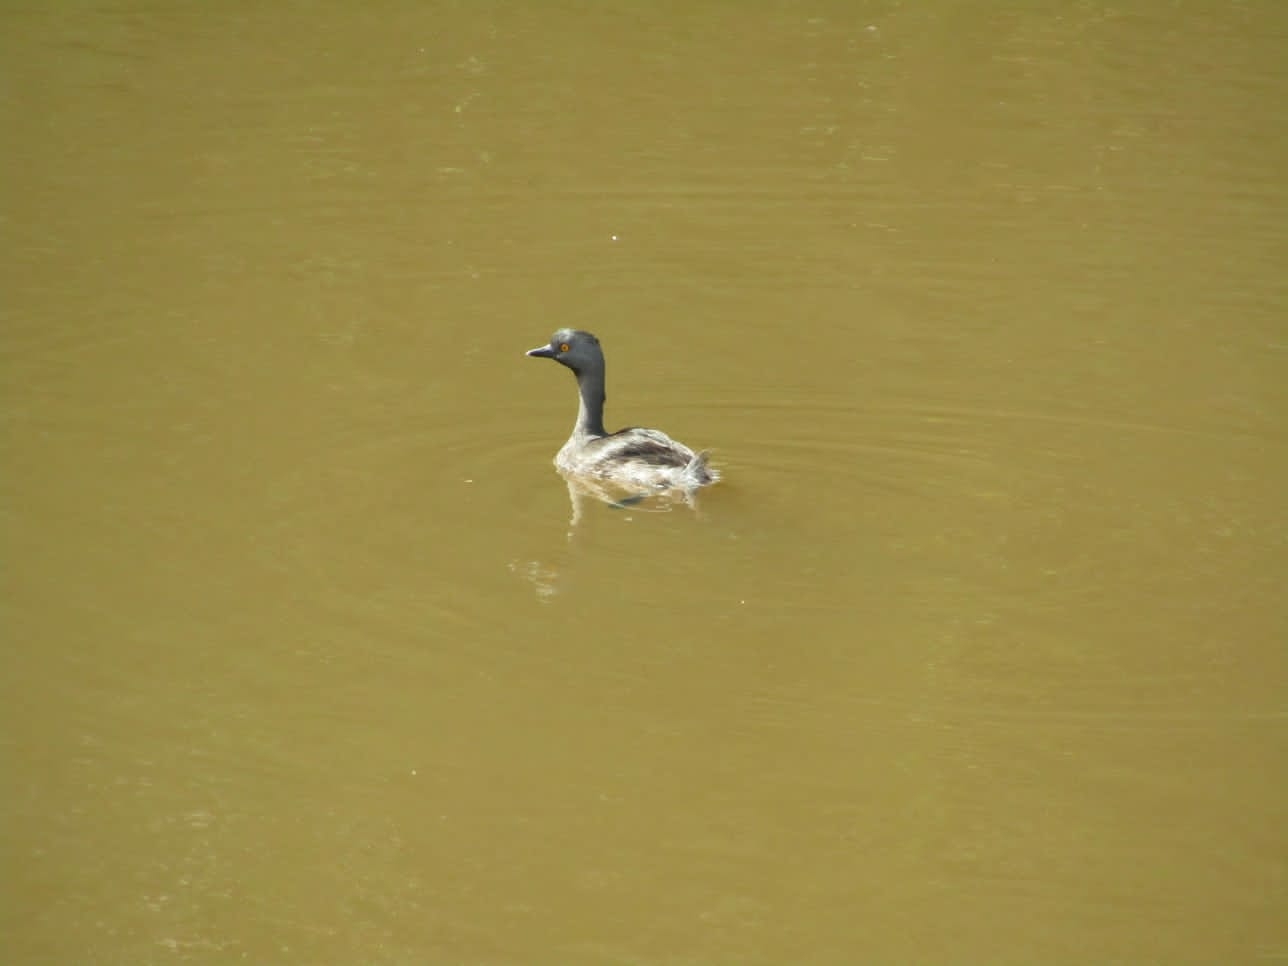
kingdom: Animalia
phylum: Chordata
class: Aves
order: Podicipediformes
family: Podicipedidae
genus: Tachybaptus
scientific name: Tachybaptus dominicus
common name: Least grebe
